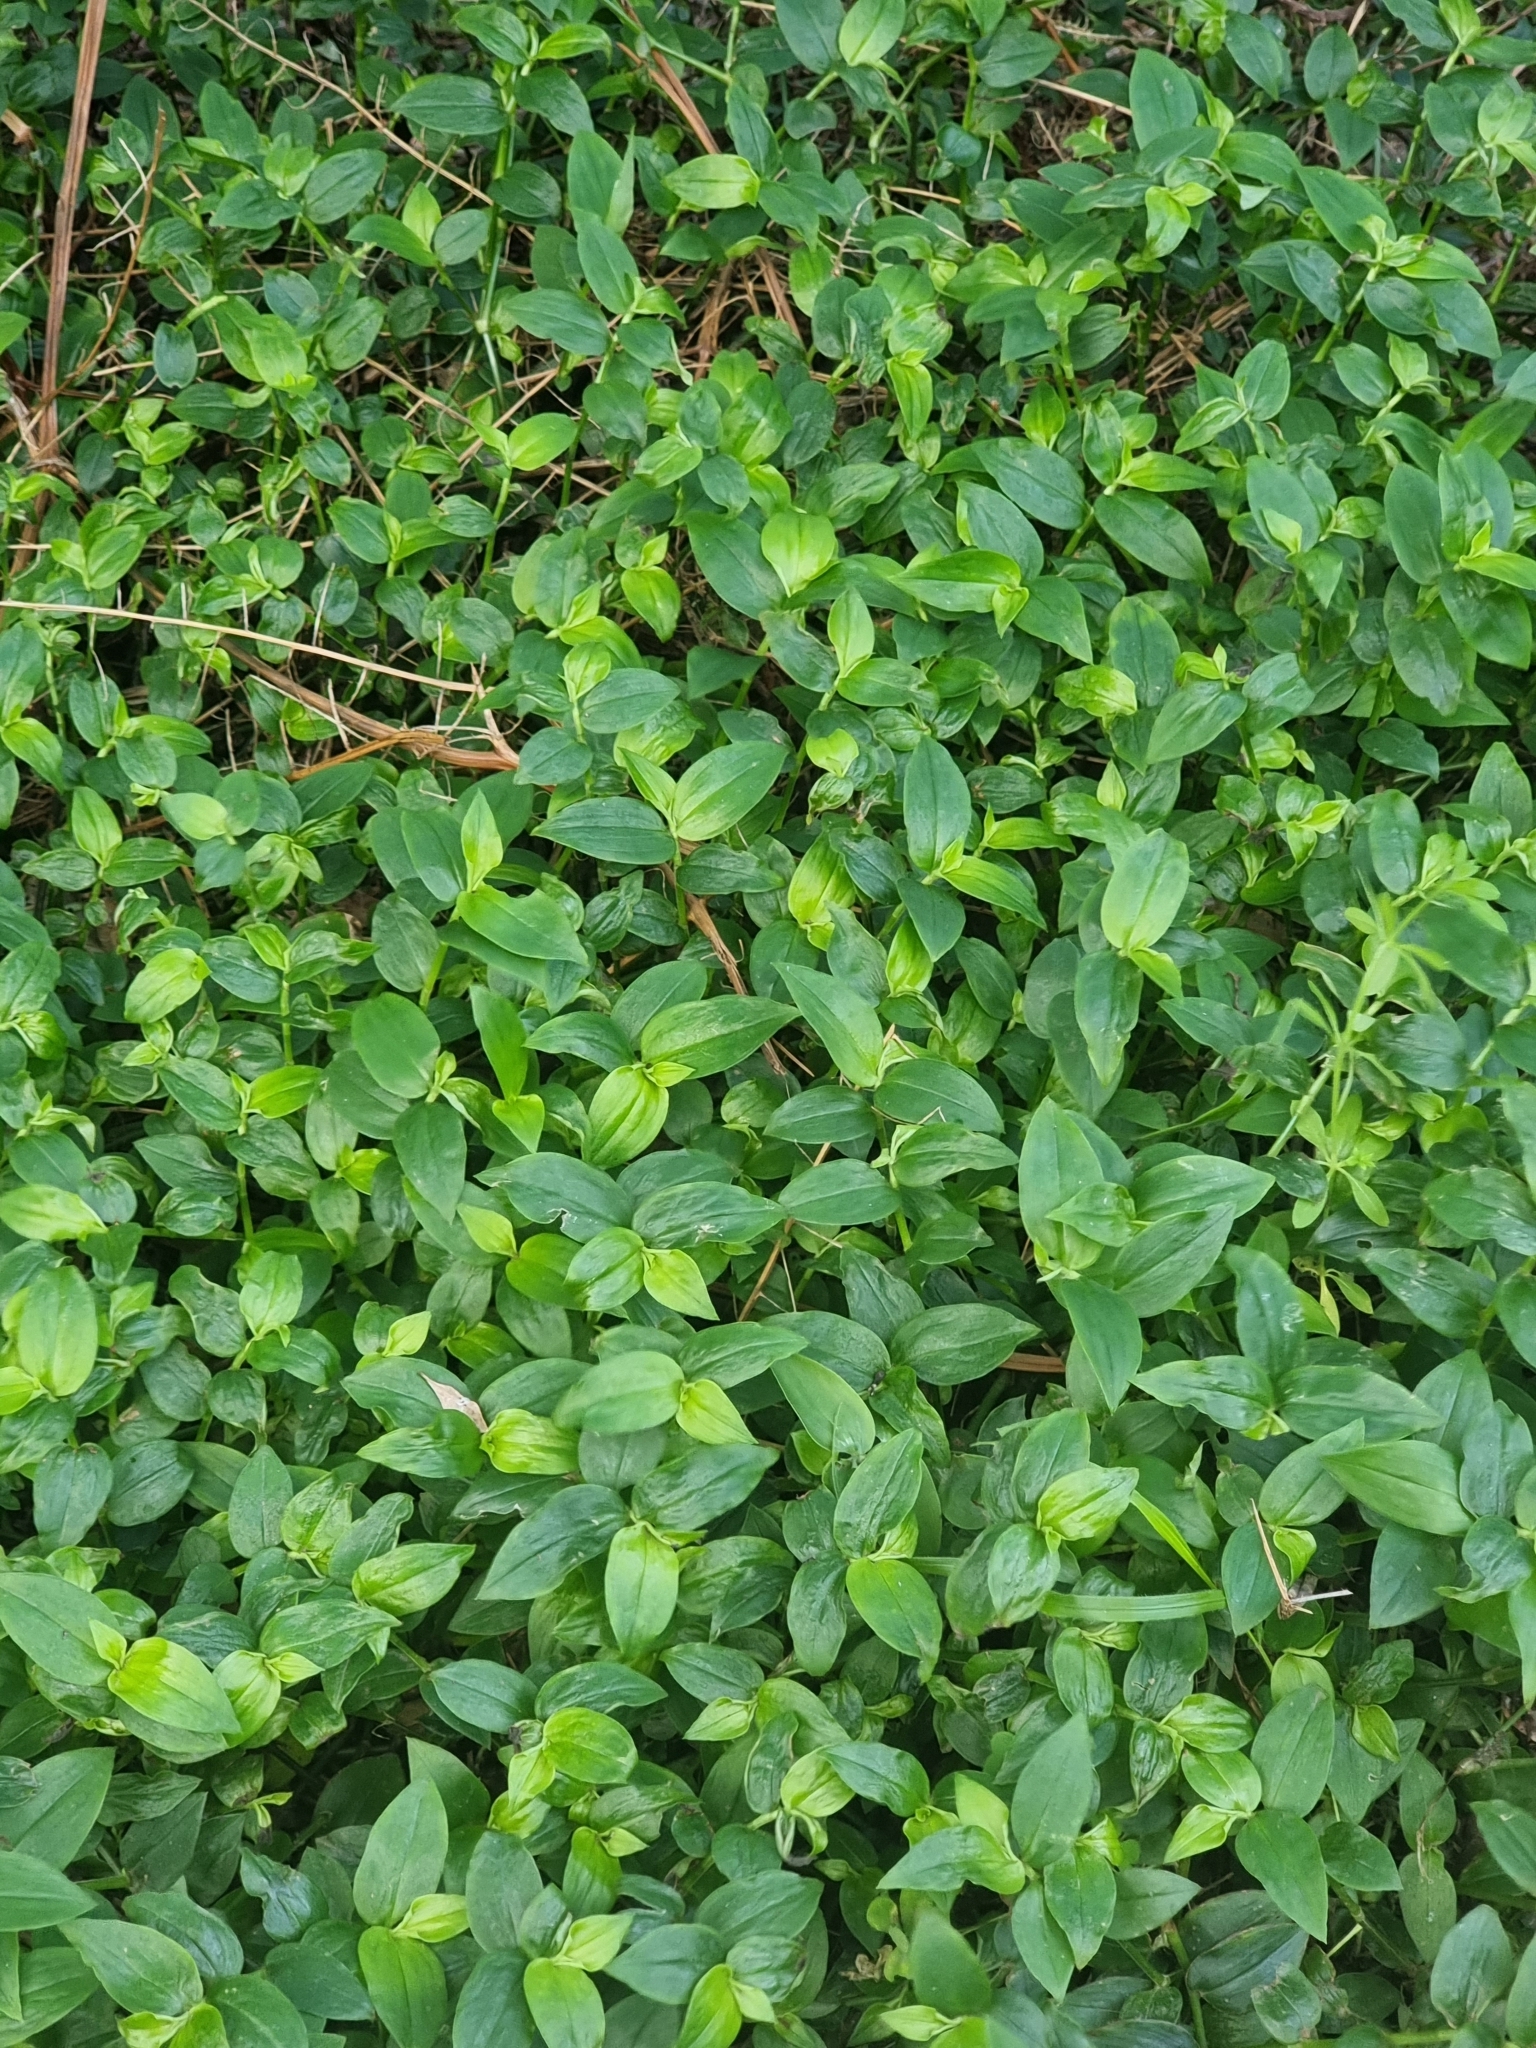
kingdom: Plantae
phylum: Tracheophyta
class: Liliopsida
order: Commelinales
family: Commelinaceae
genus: Tradescantia
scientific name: Tradescantia fluminensis
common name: Wandering-jew
